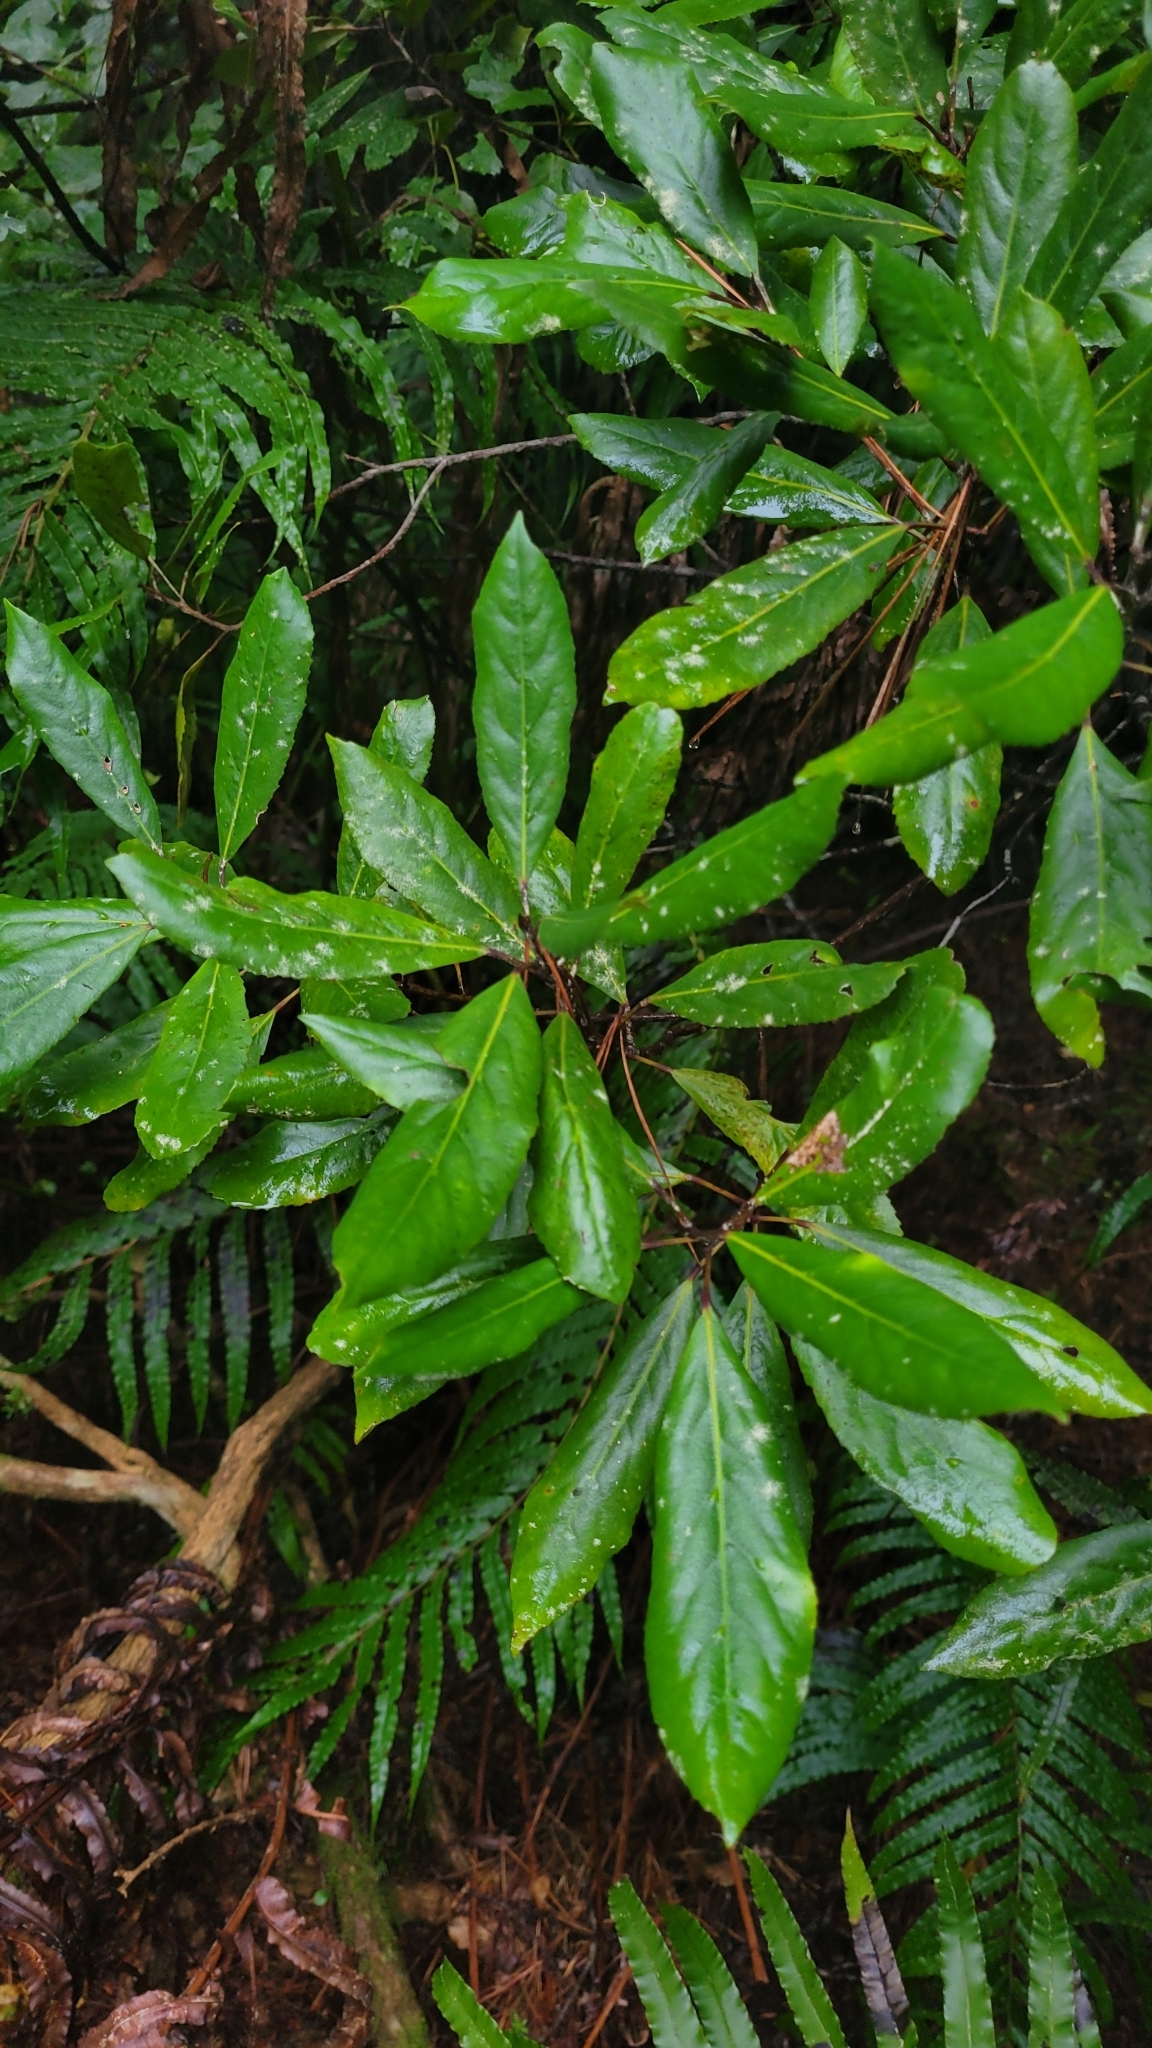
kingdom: Plantae
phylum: Tracheophyta
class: Magnoliopsida
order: Oxalidales
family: Elaeocarpaceae
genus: Elaeocarpus
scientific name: Elaeocarpus dentatus
